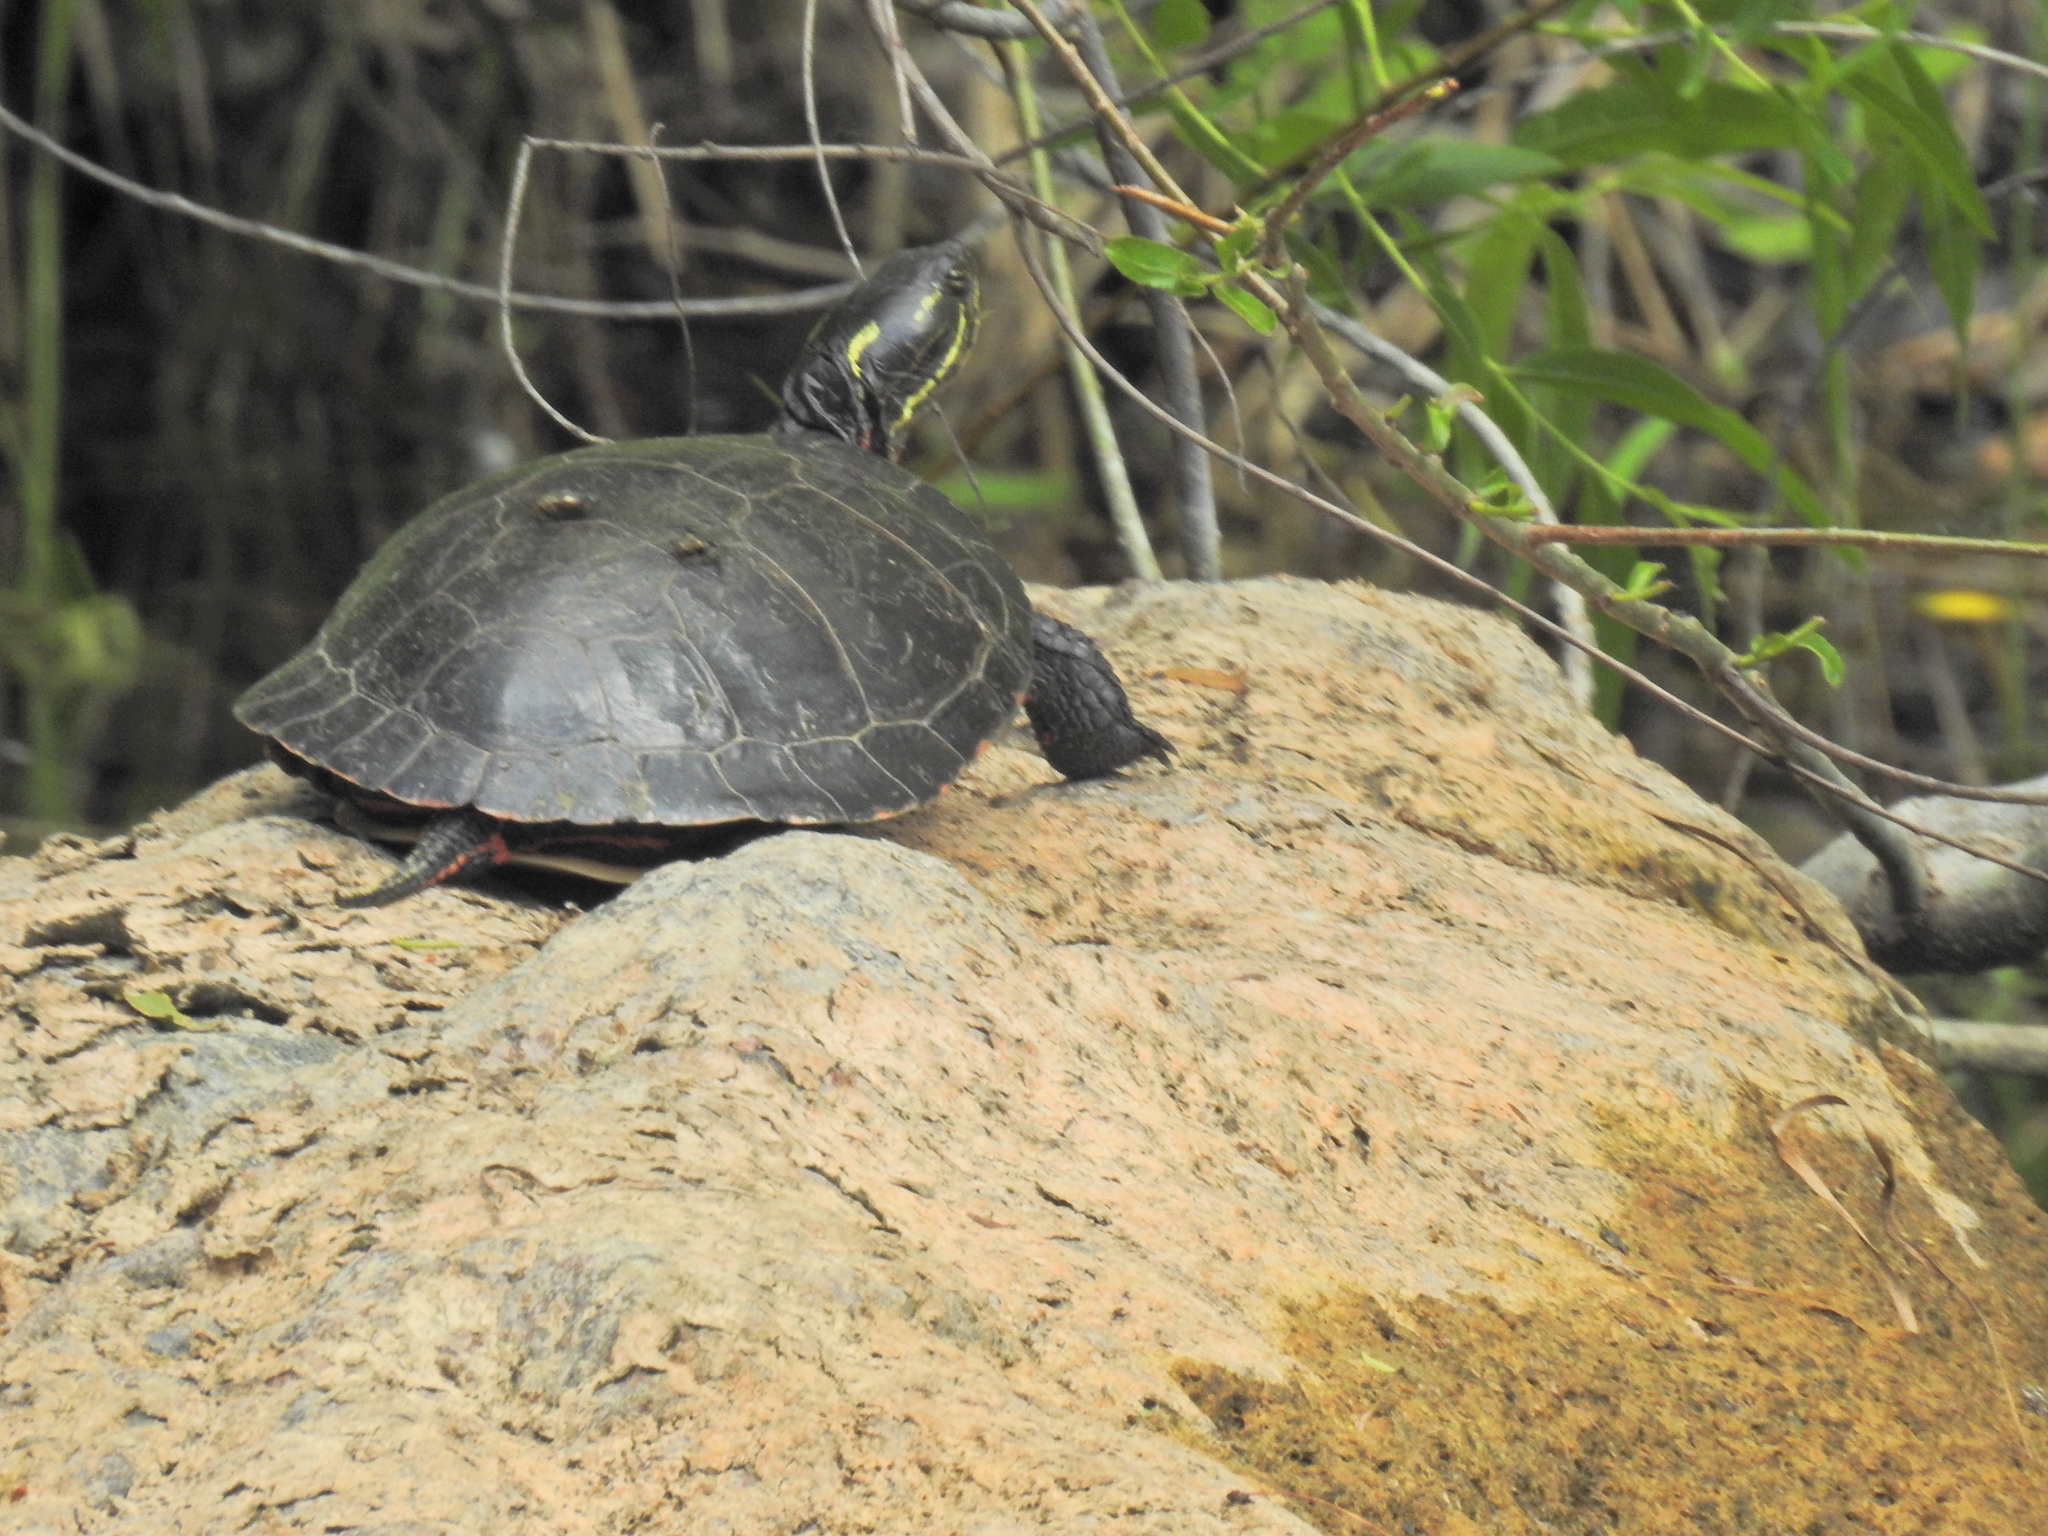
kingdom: Animalia
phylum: Chordata
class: Testudines
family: Emydidae
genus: Chrysemys
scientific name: Chrysemys picta
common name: Painted turtle
